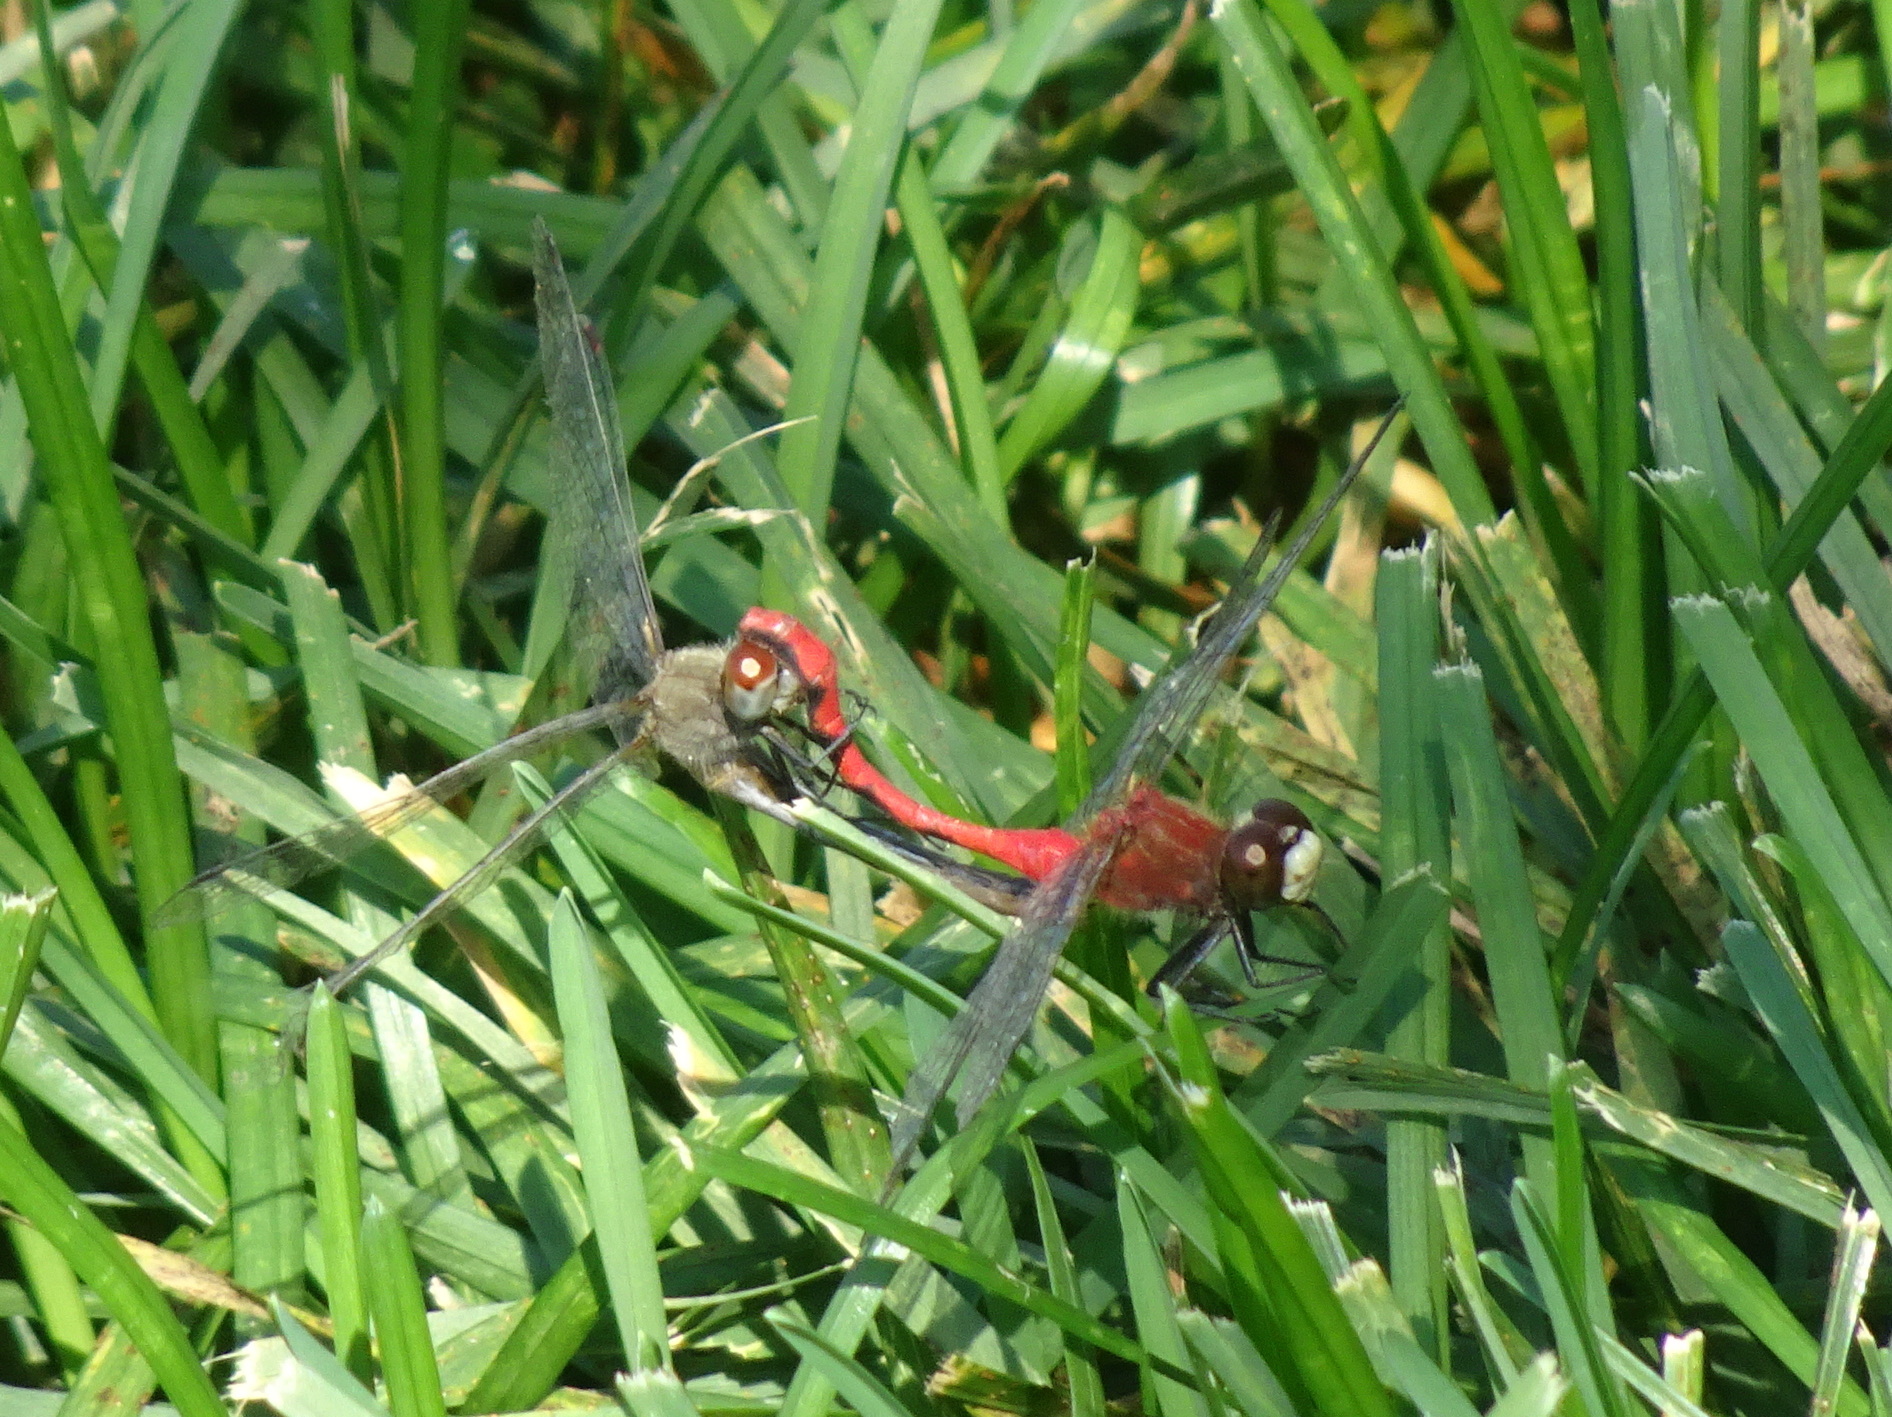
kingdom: Animalia
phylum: Arthropoda
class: Insecta
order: Odonata
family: Libellulidae
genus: Sympetrum
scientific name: Sympetrum obtrusum
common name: White-faced meadowhawk
